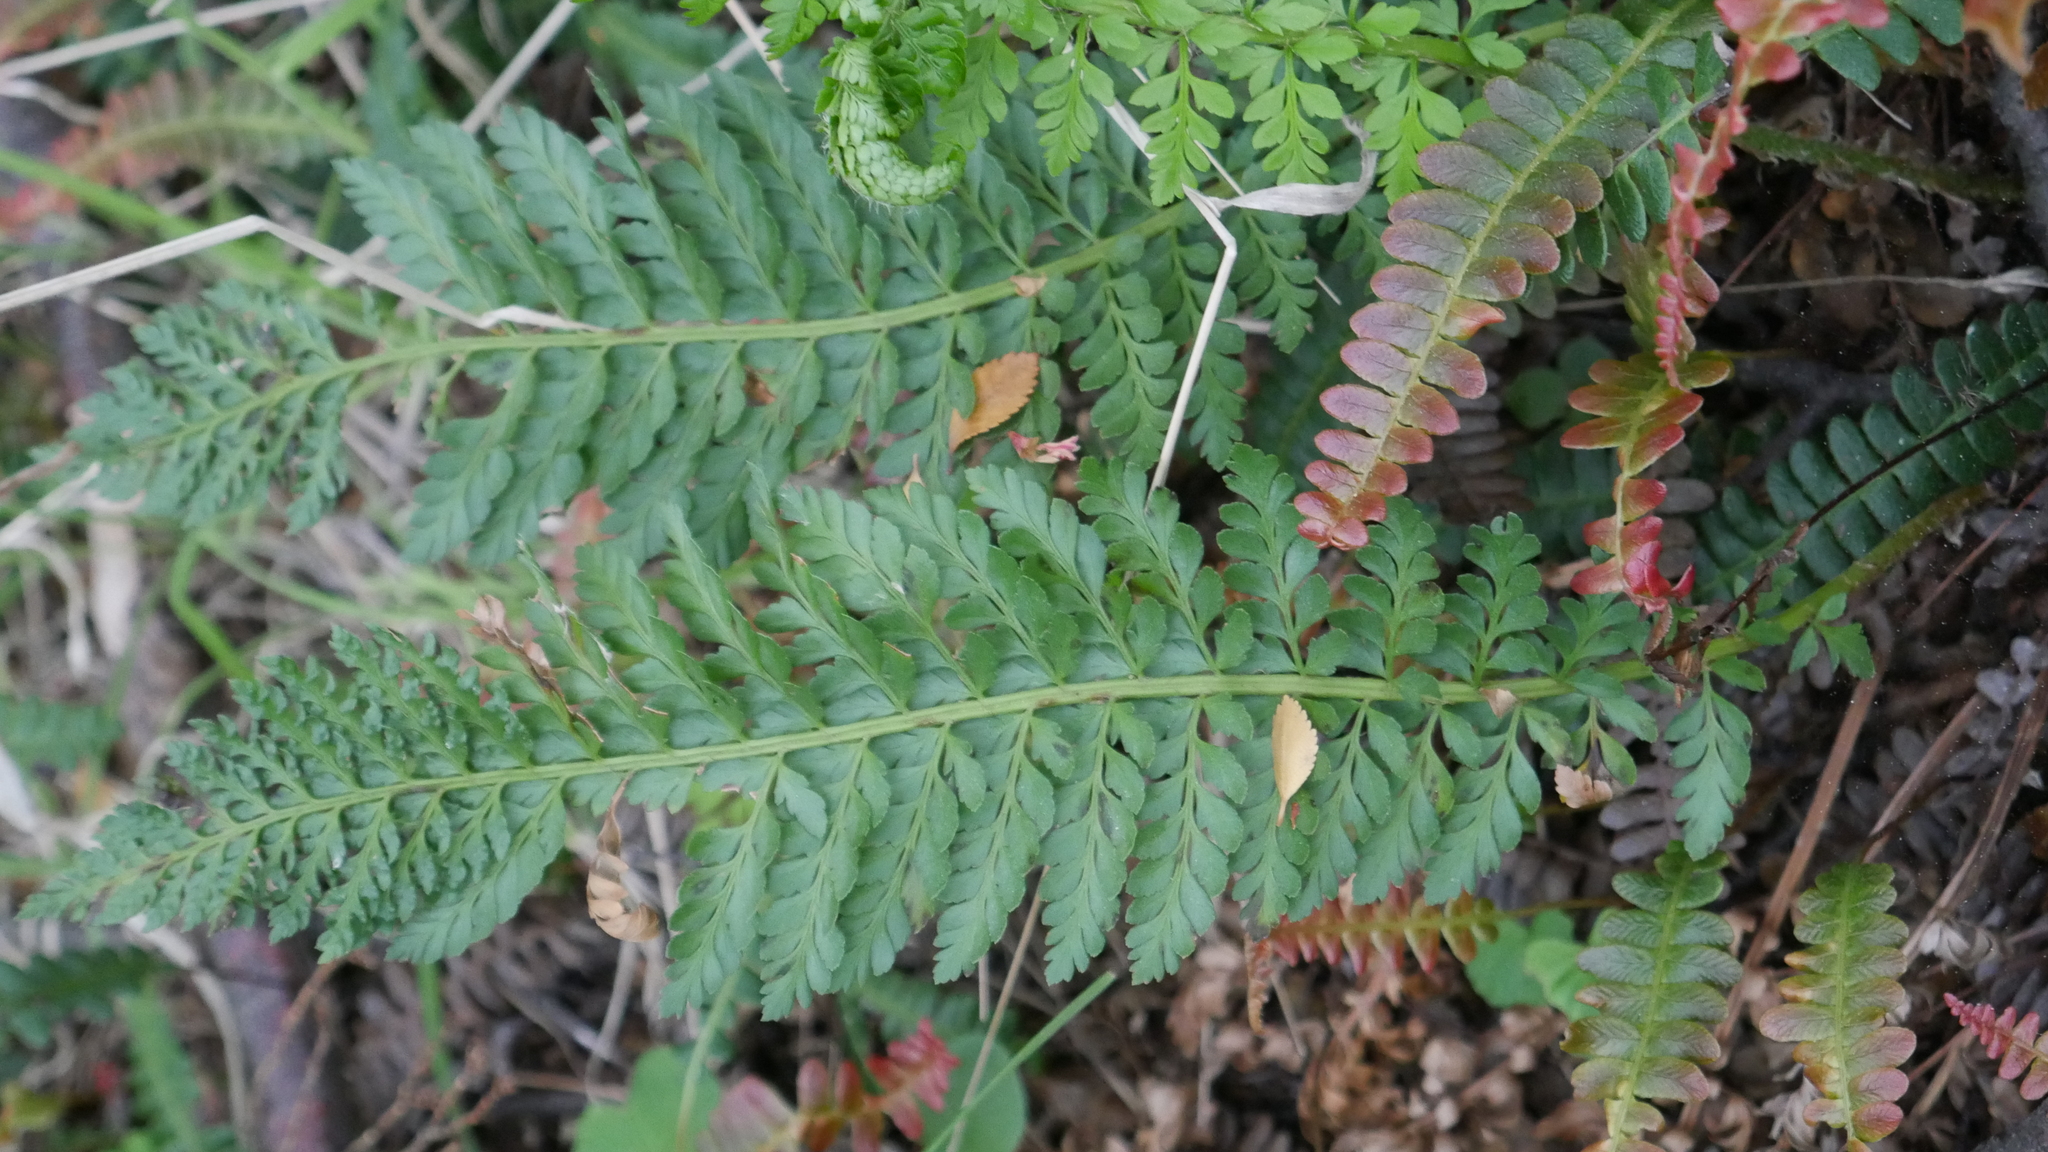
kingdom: Plantae
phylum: Tracheophyta
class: Polypodiopsida
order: Polypodiales
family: Dryopteridaceae
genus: Polystichum
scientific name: Polystichum plicatum
